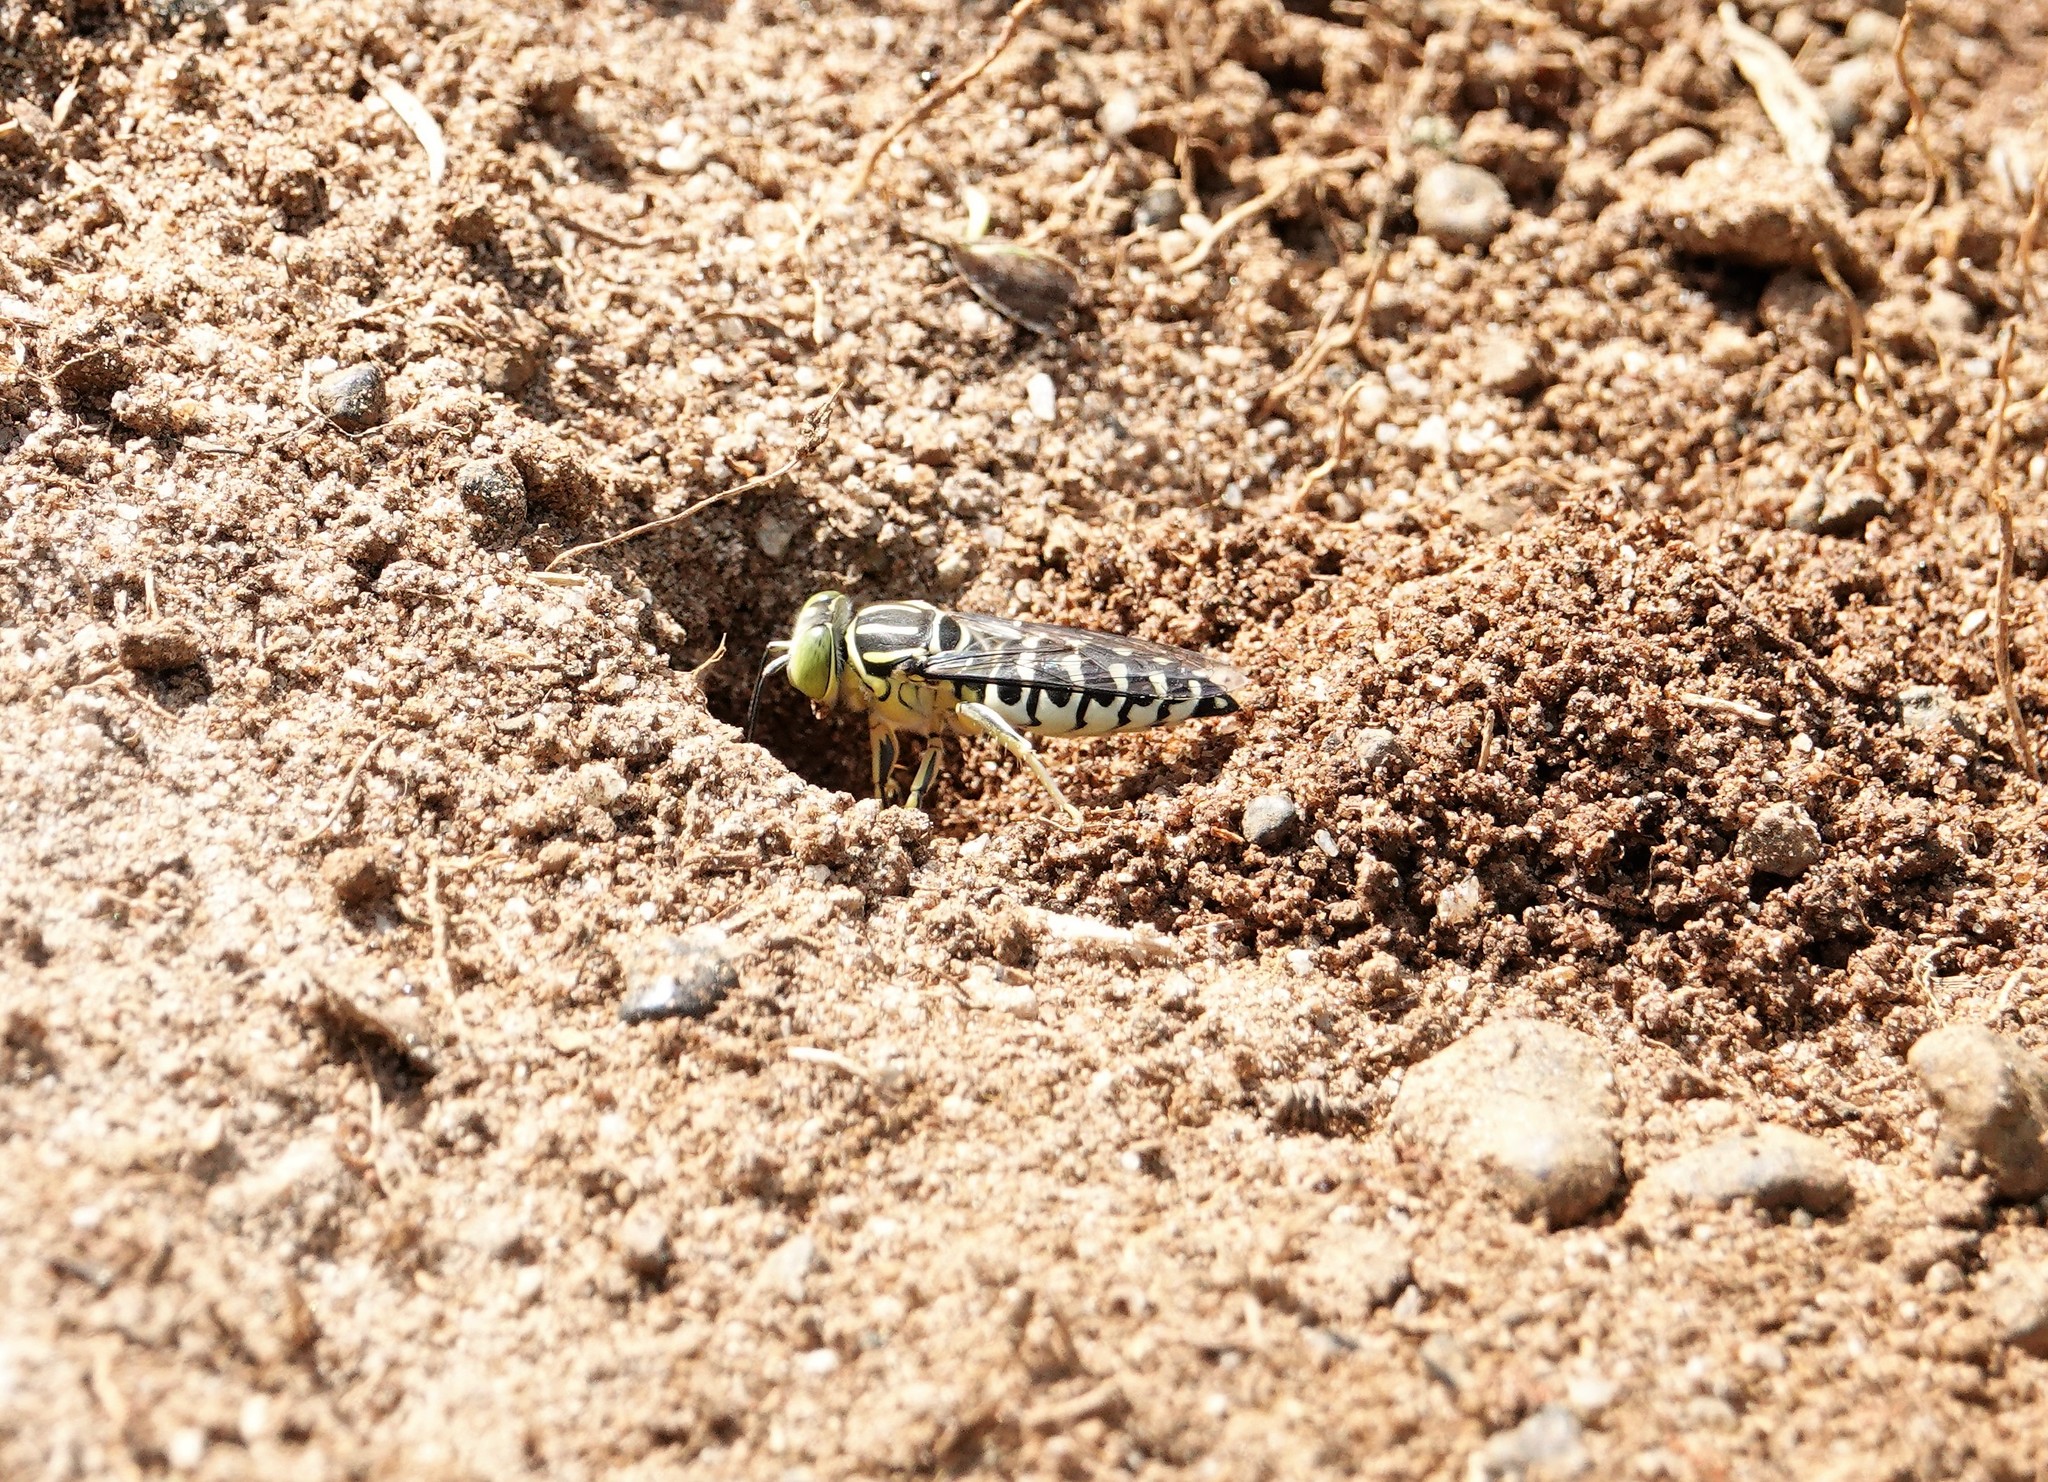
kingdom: Animalia
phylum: Arthropoda
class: Insecta
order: Hymenoptera
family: Crabronidae
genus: Stictia
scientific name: Stictia signata
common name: Sand wasp
